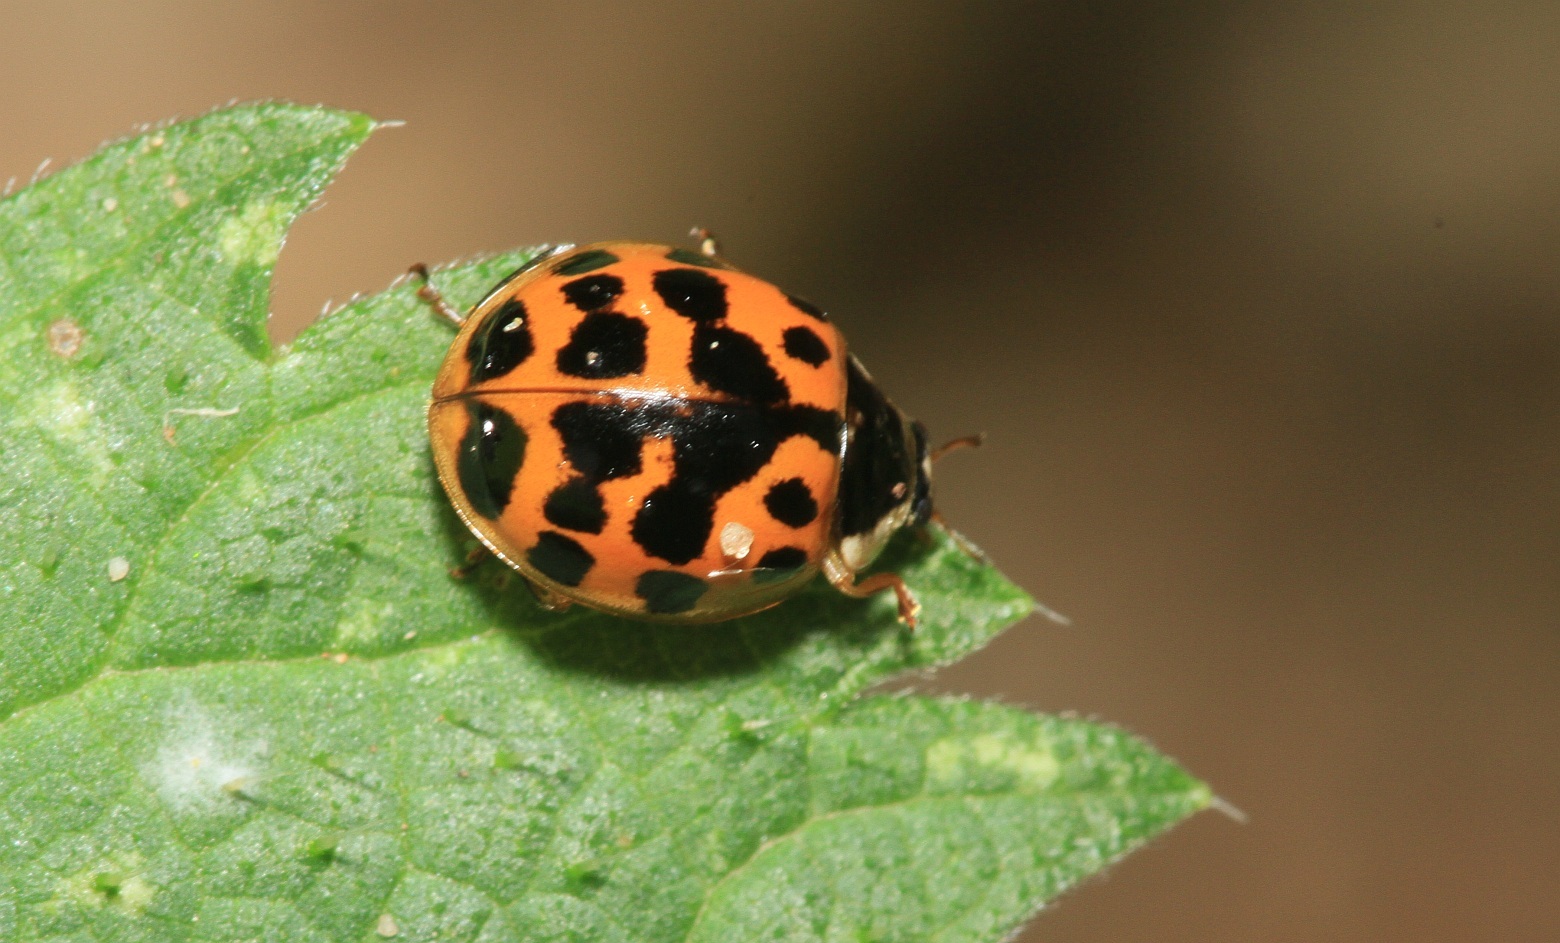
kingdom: Animalia
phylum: Arthropoda
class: Insecta
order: Coleoptera
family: Coccinellidae
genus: Harmonia
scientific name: Harmonia axyridis
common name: Harlequin ladybird
